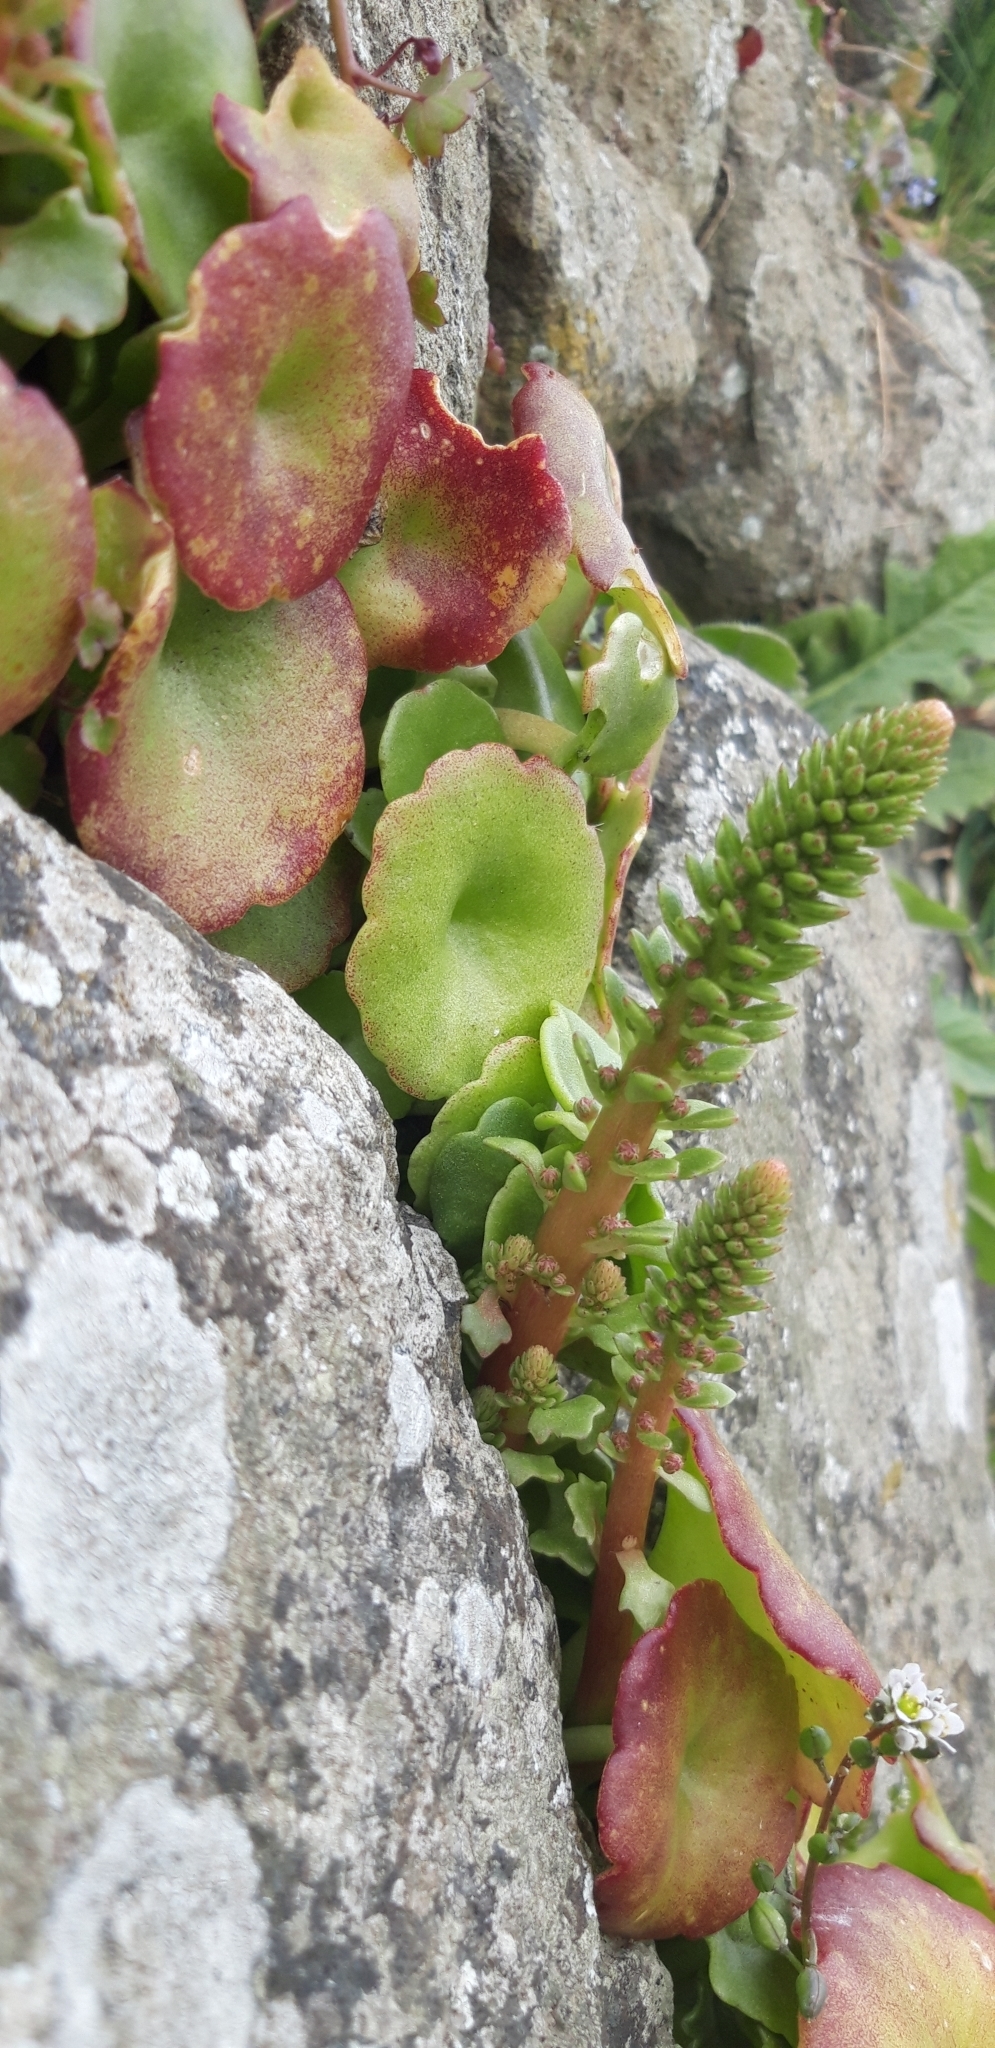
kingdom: Plantae
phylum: Tracheophyta
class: Magnoliopsida
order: Saxifragales
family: Crassulaceae
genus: Umbilicus
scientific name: Umbilicus rupestris
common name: Navelwort
